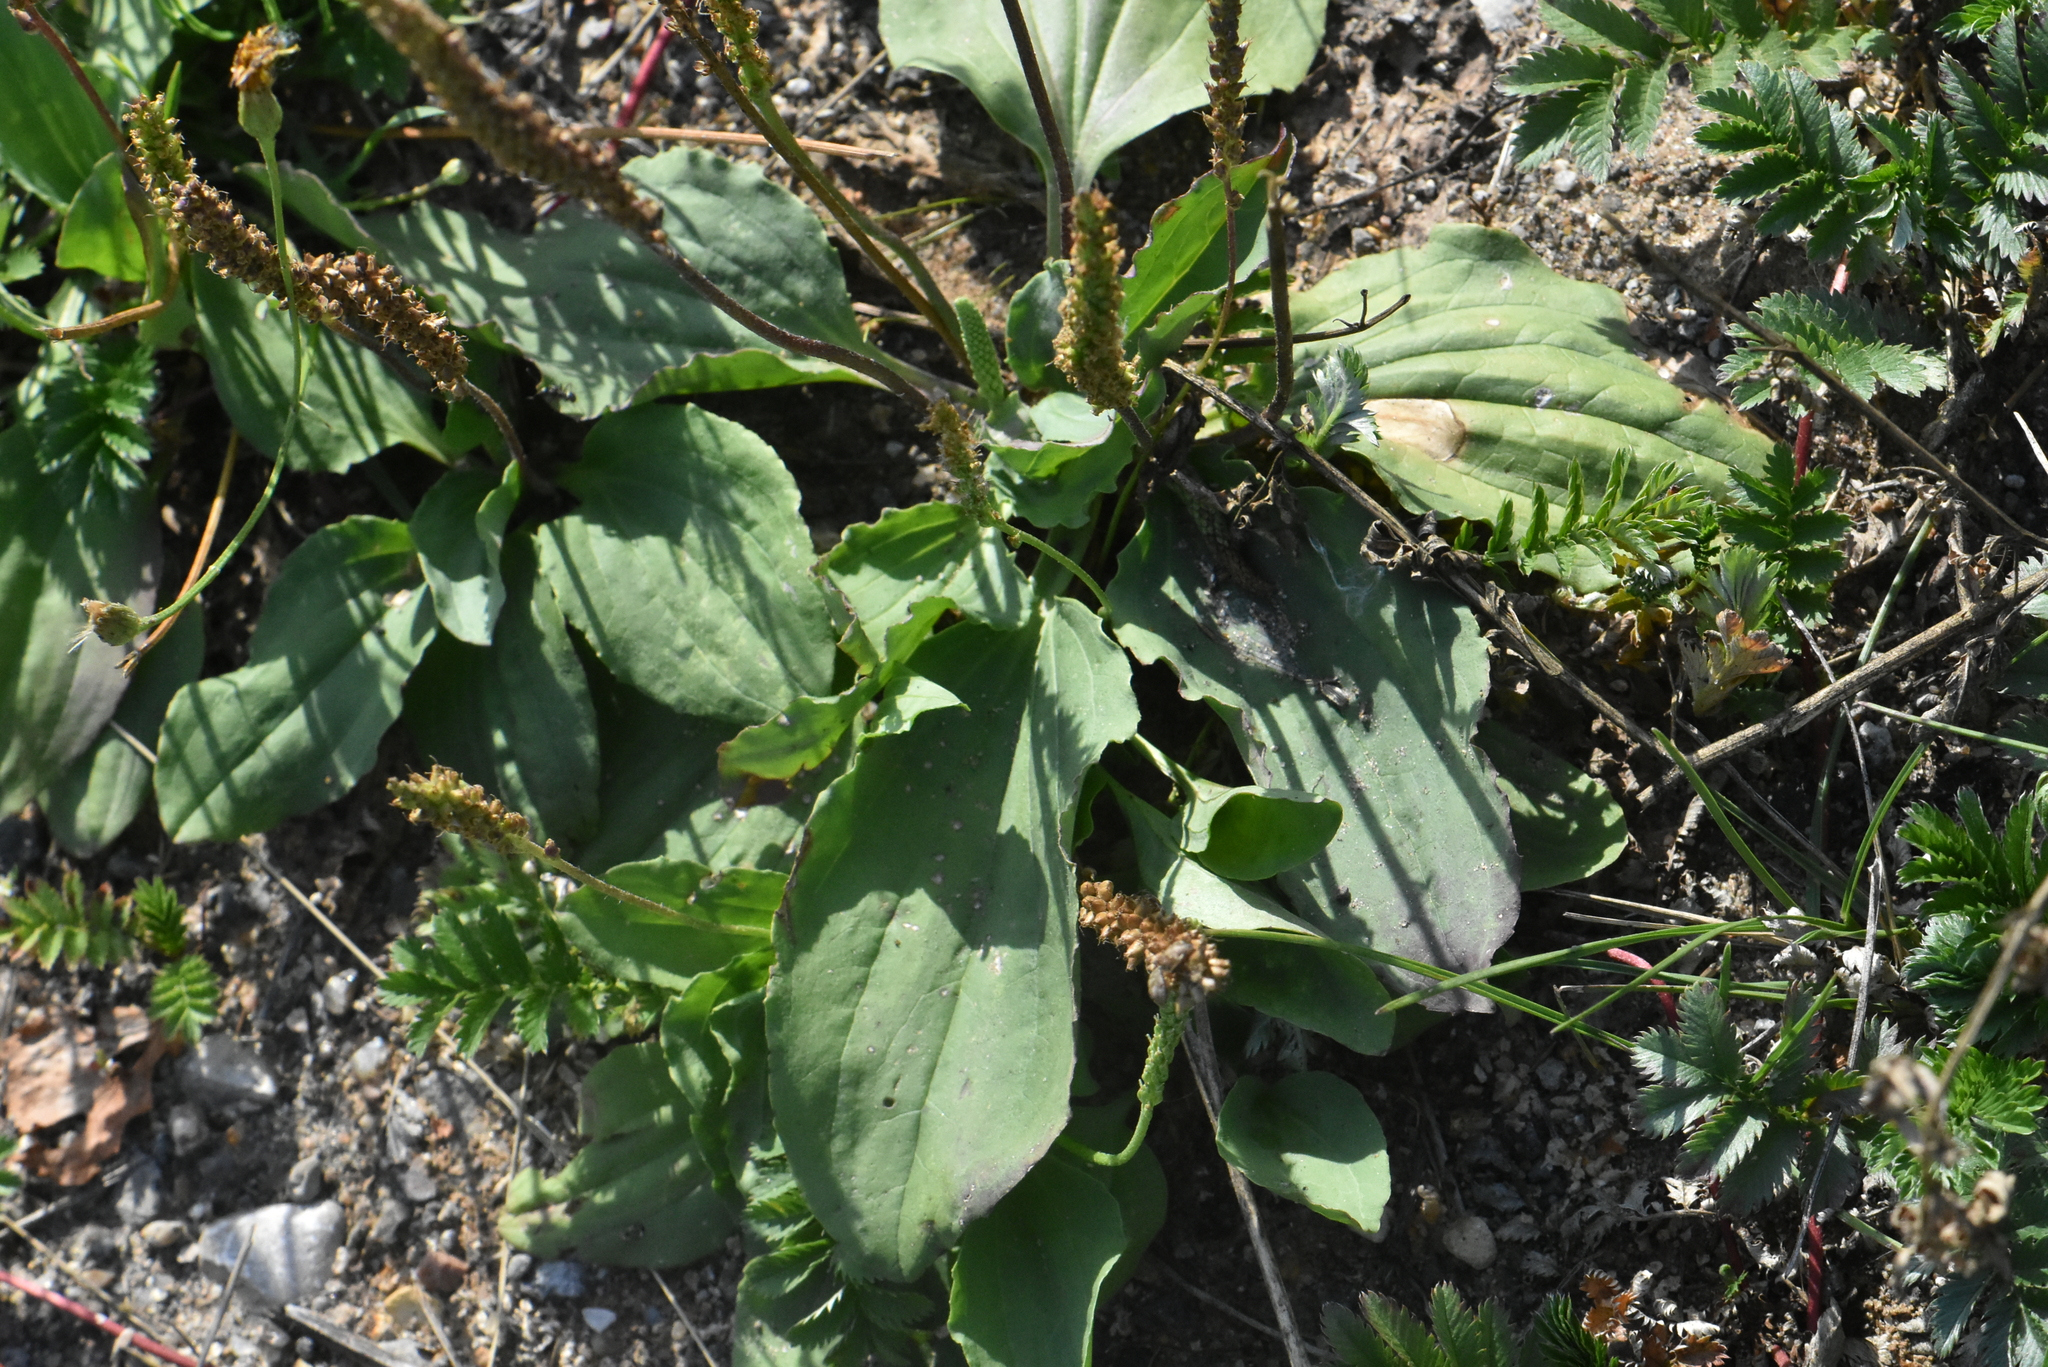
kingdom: Plantae
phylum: Tracheophyta
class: Magnoliopsida
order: Lamiales
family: Plantaginaceae
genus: Plantago
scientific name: Plantago major
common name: Common plantain
